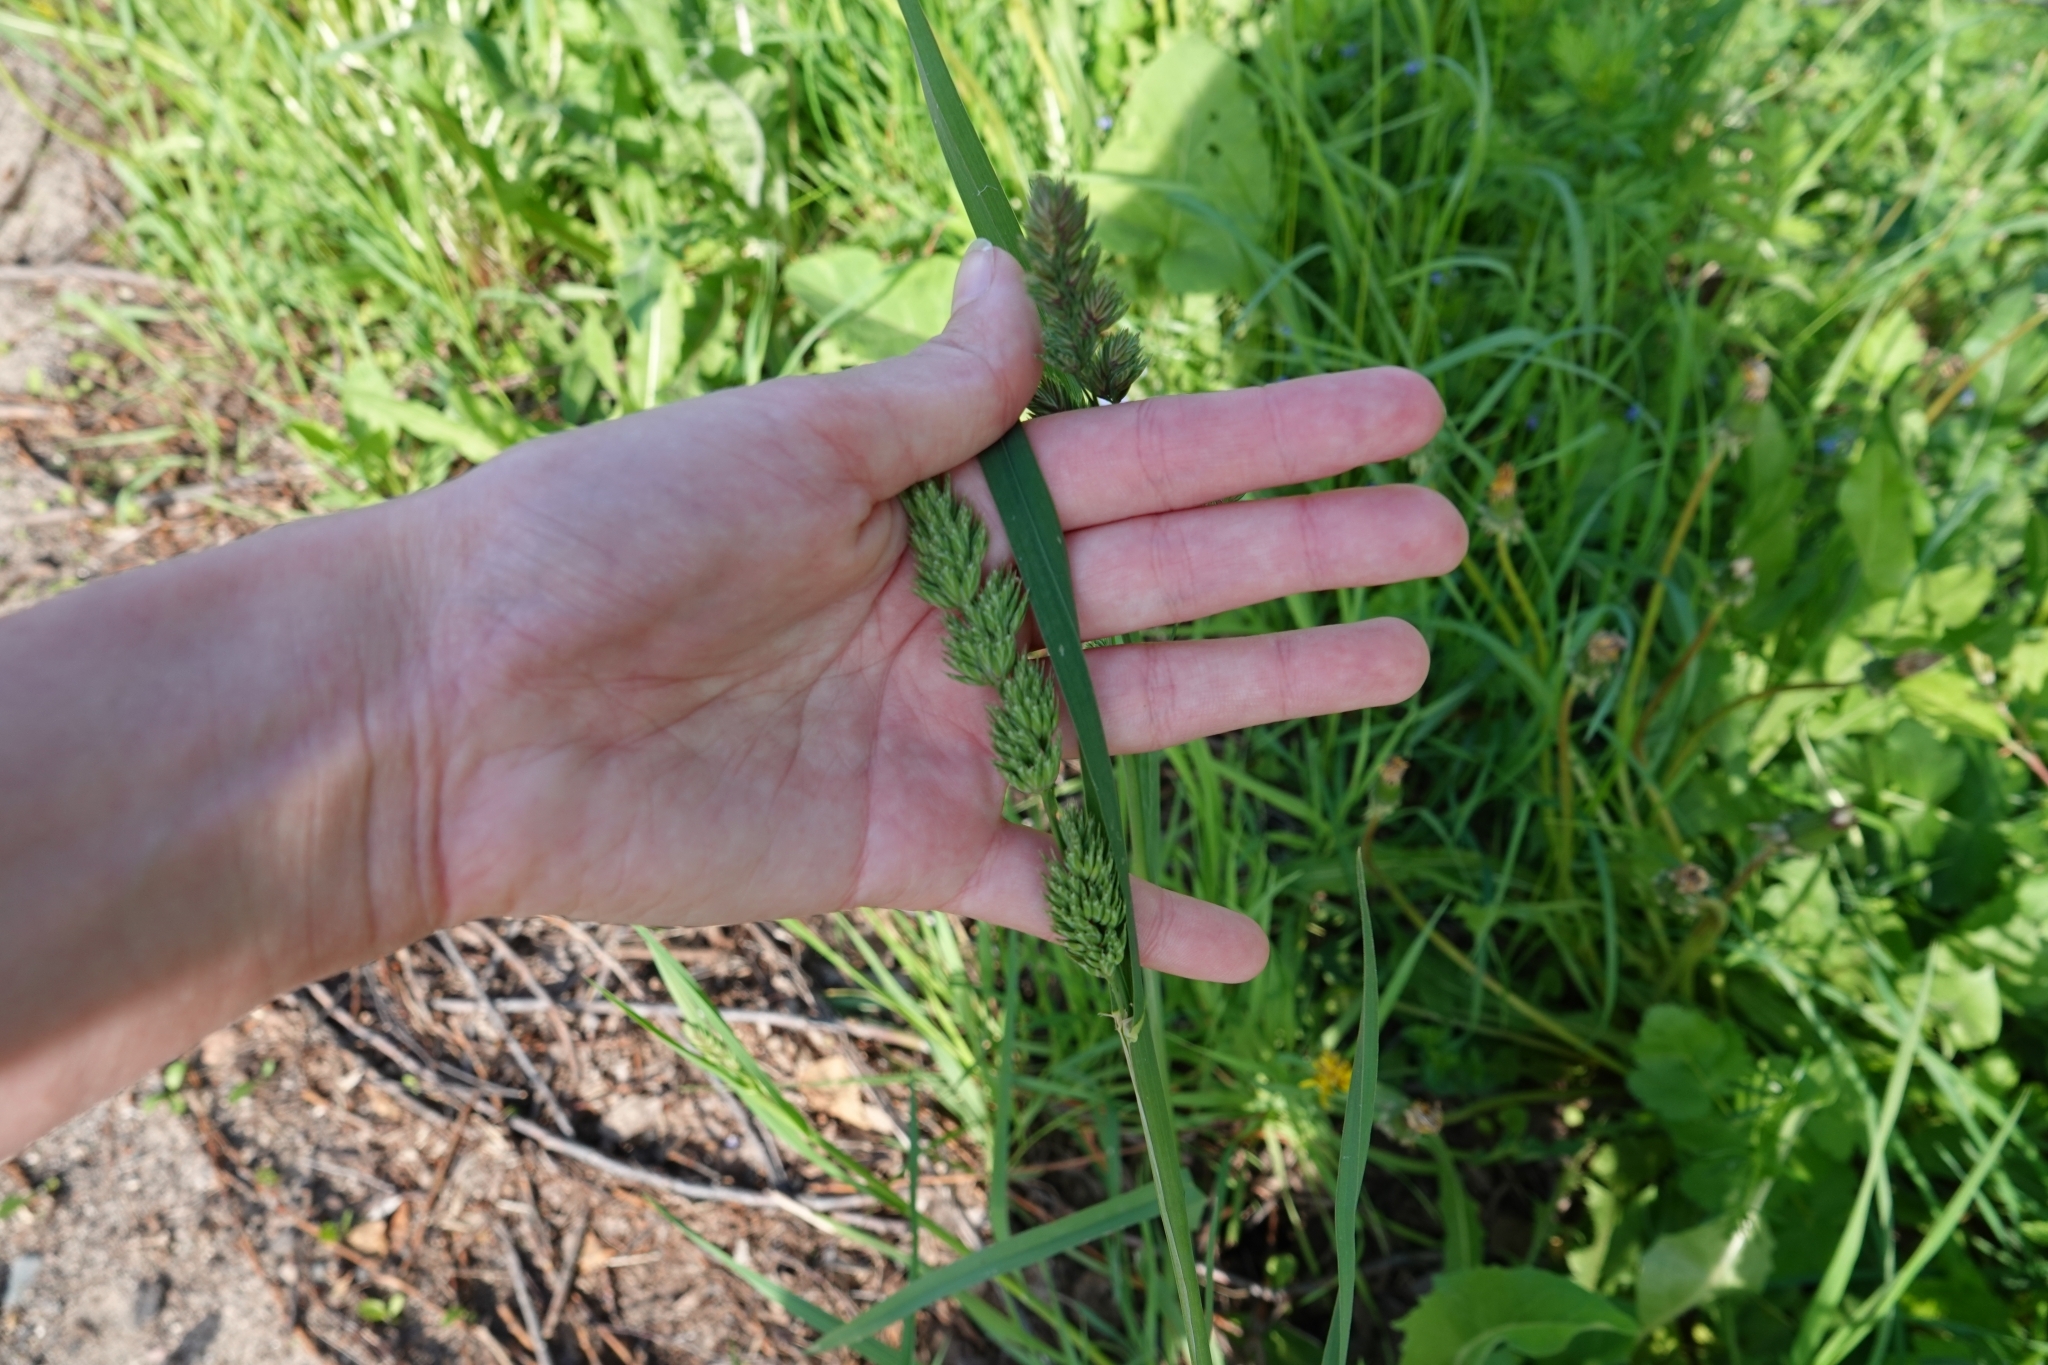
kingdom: Plantae
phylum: Tracheophyta
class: Liliopsida
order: Poales
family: Poaceae
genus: Dactylis
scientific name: Dactylis glomerata
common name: Orchardgrass
